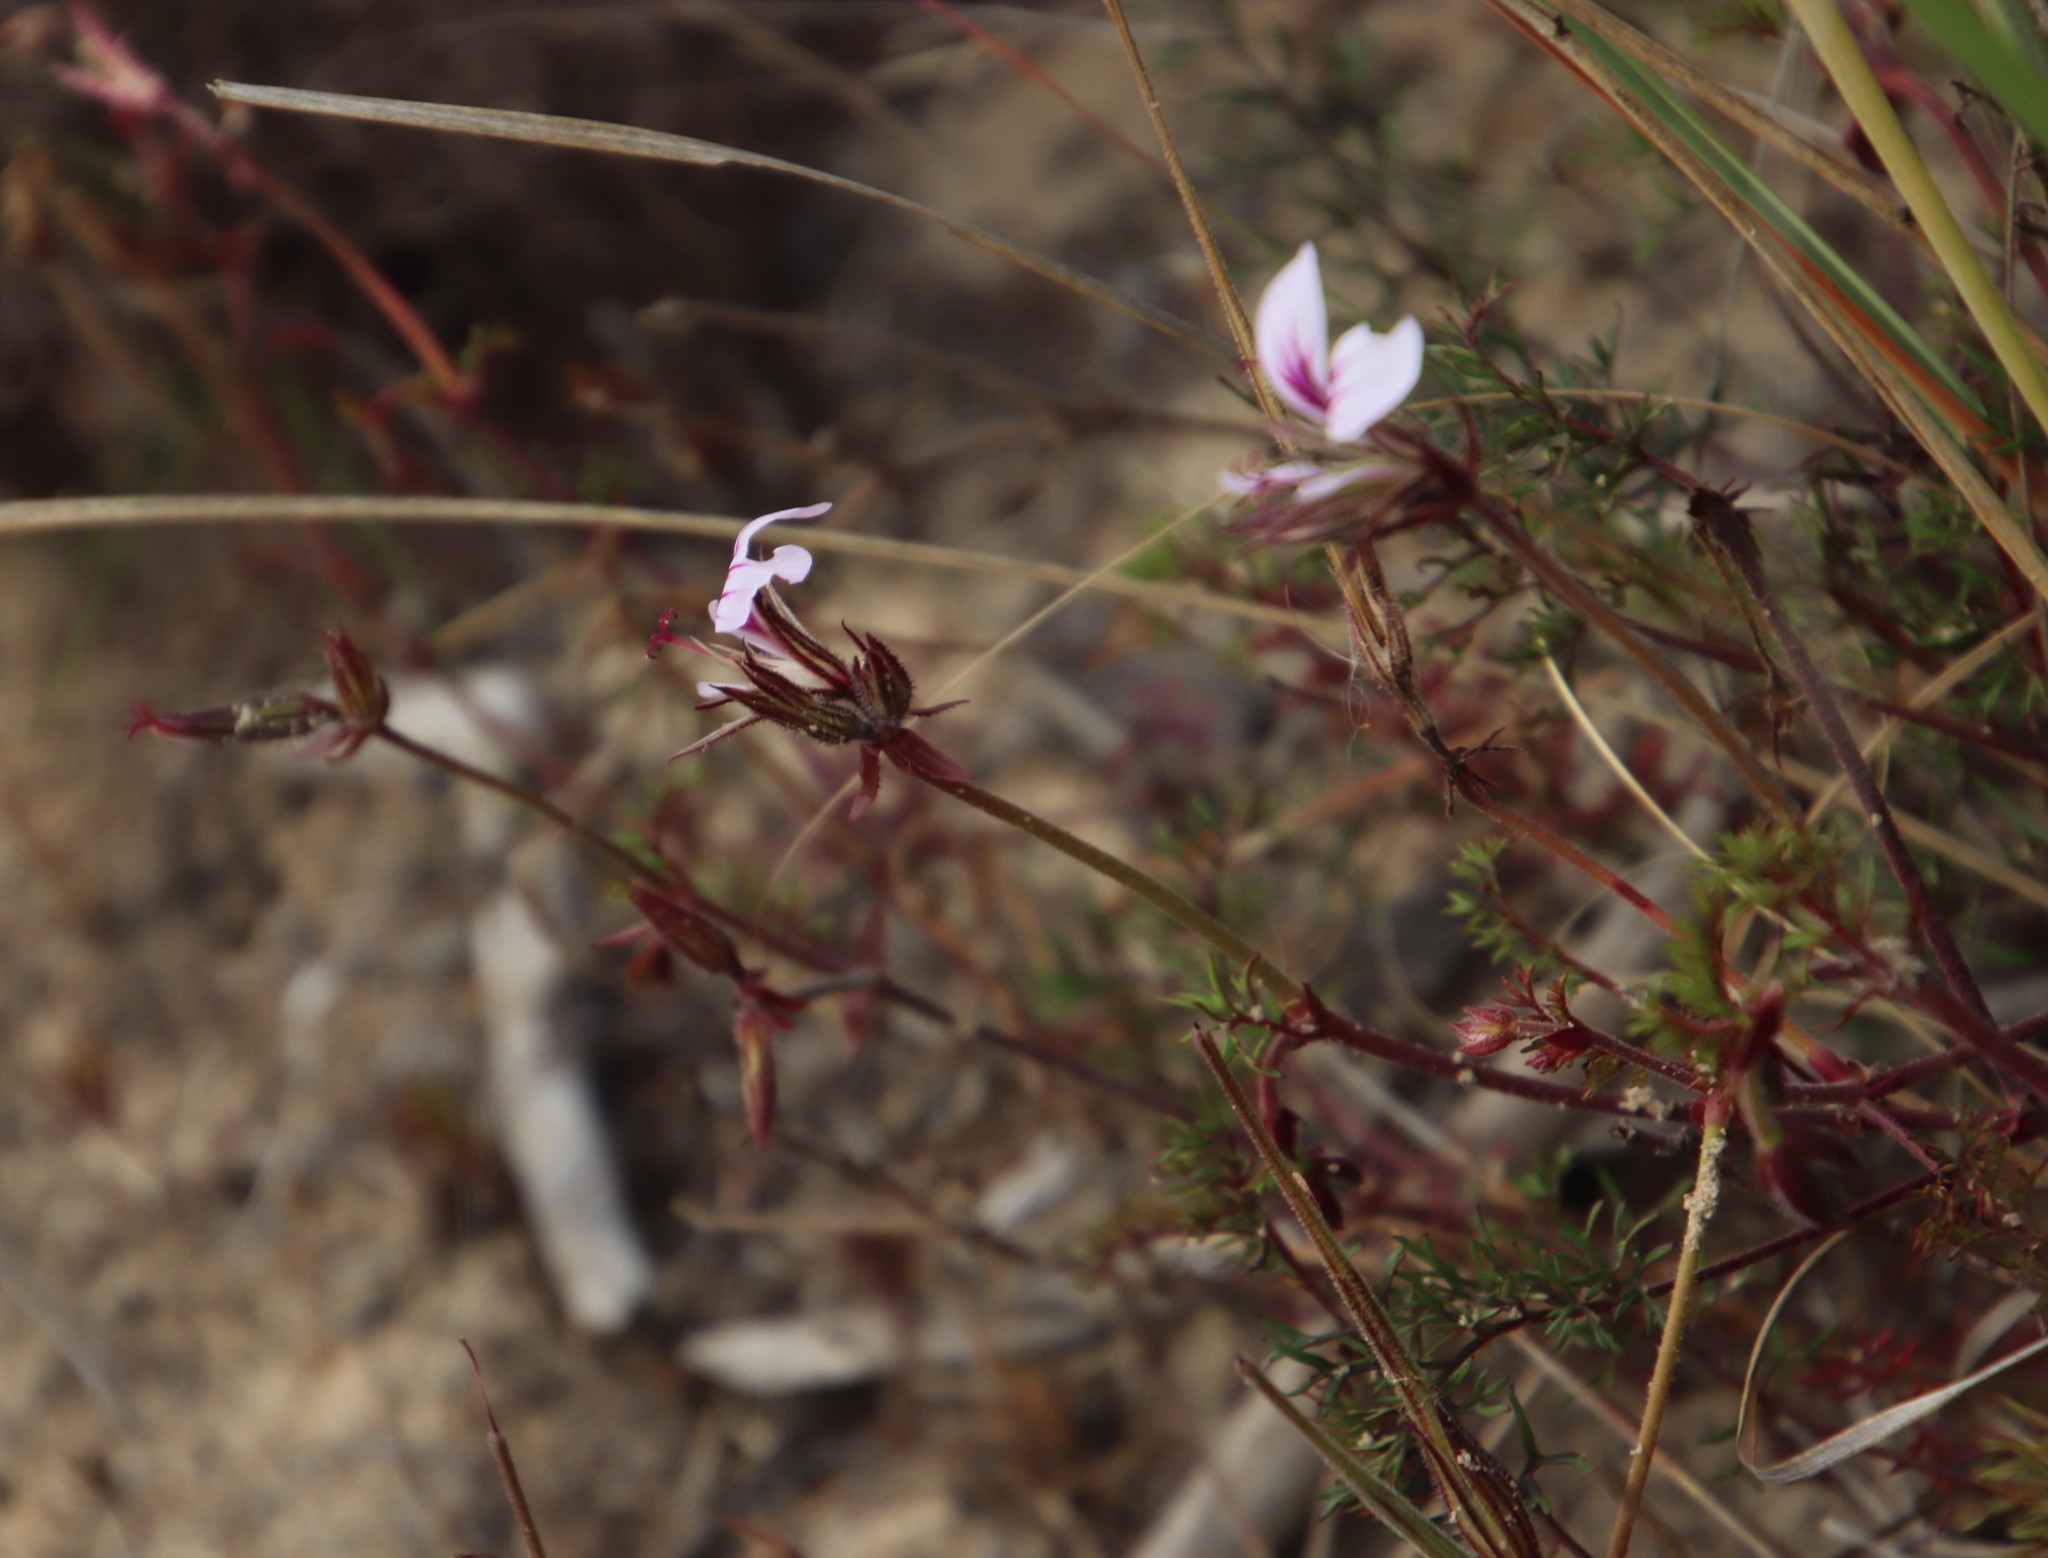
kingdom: Plantae
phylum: Tracheophyta
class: Magnoliopsida
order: Geraniales
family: Geraniaceae
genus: Pelargonium
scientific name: Pelargonium myrrhifolium
